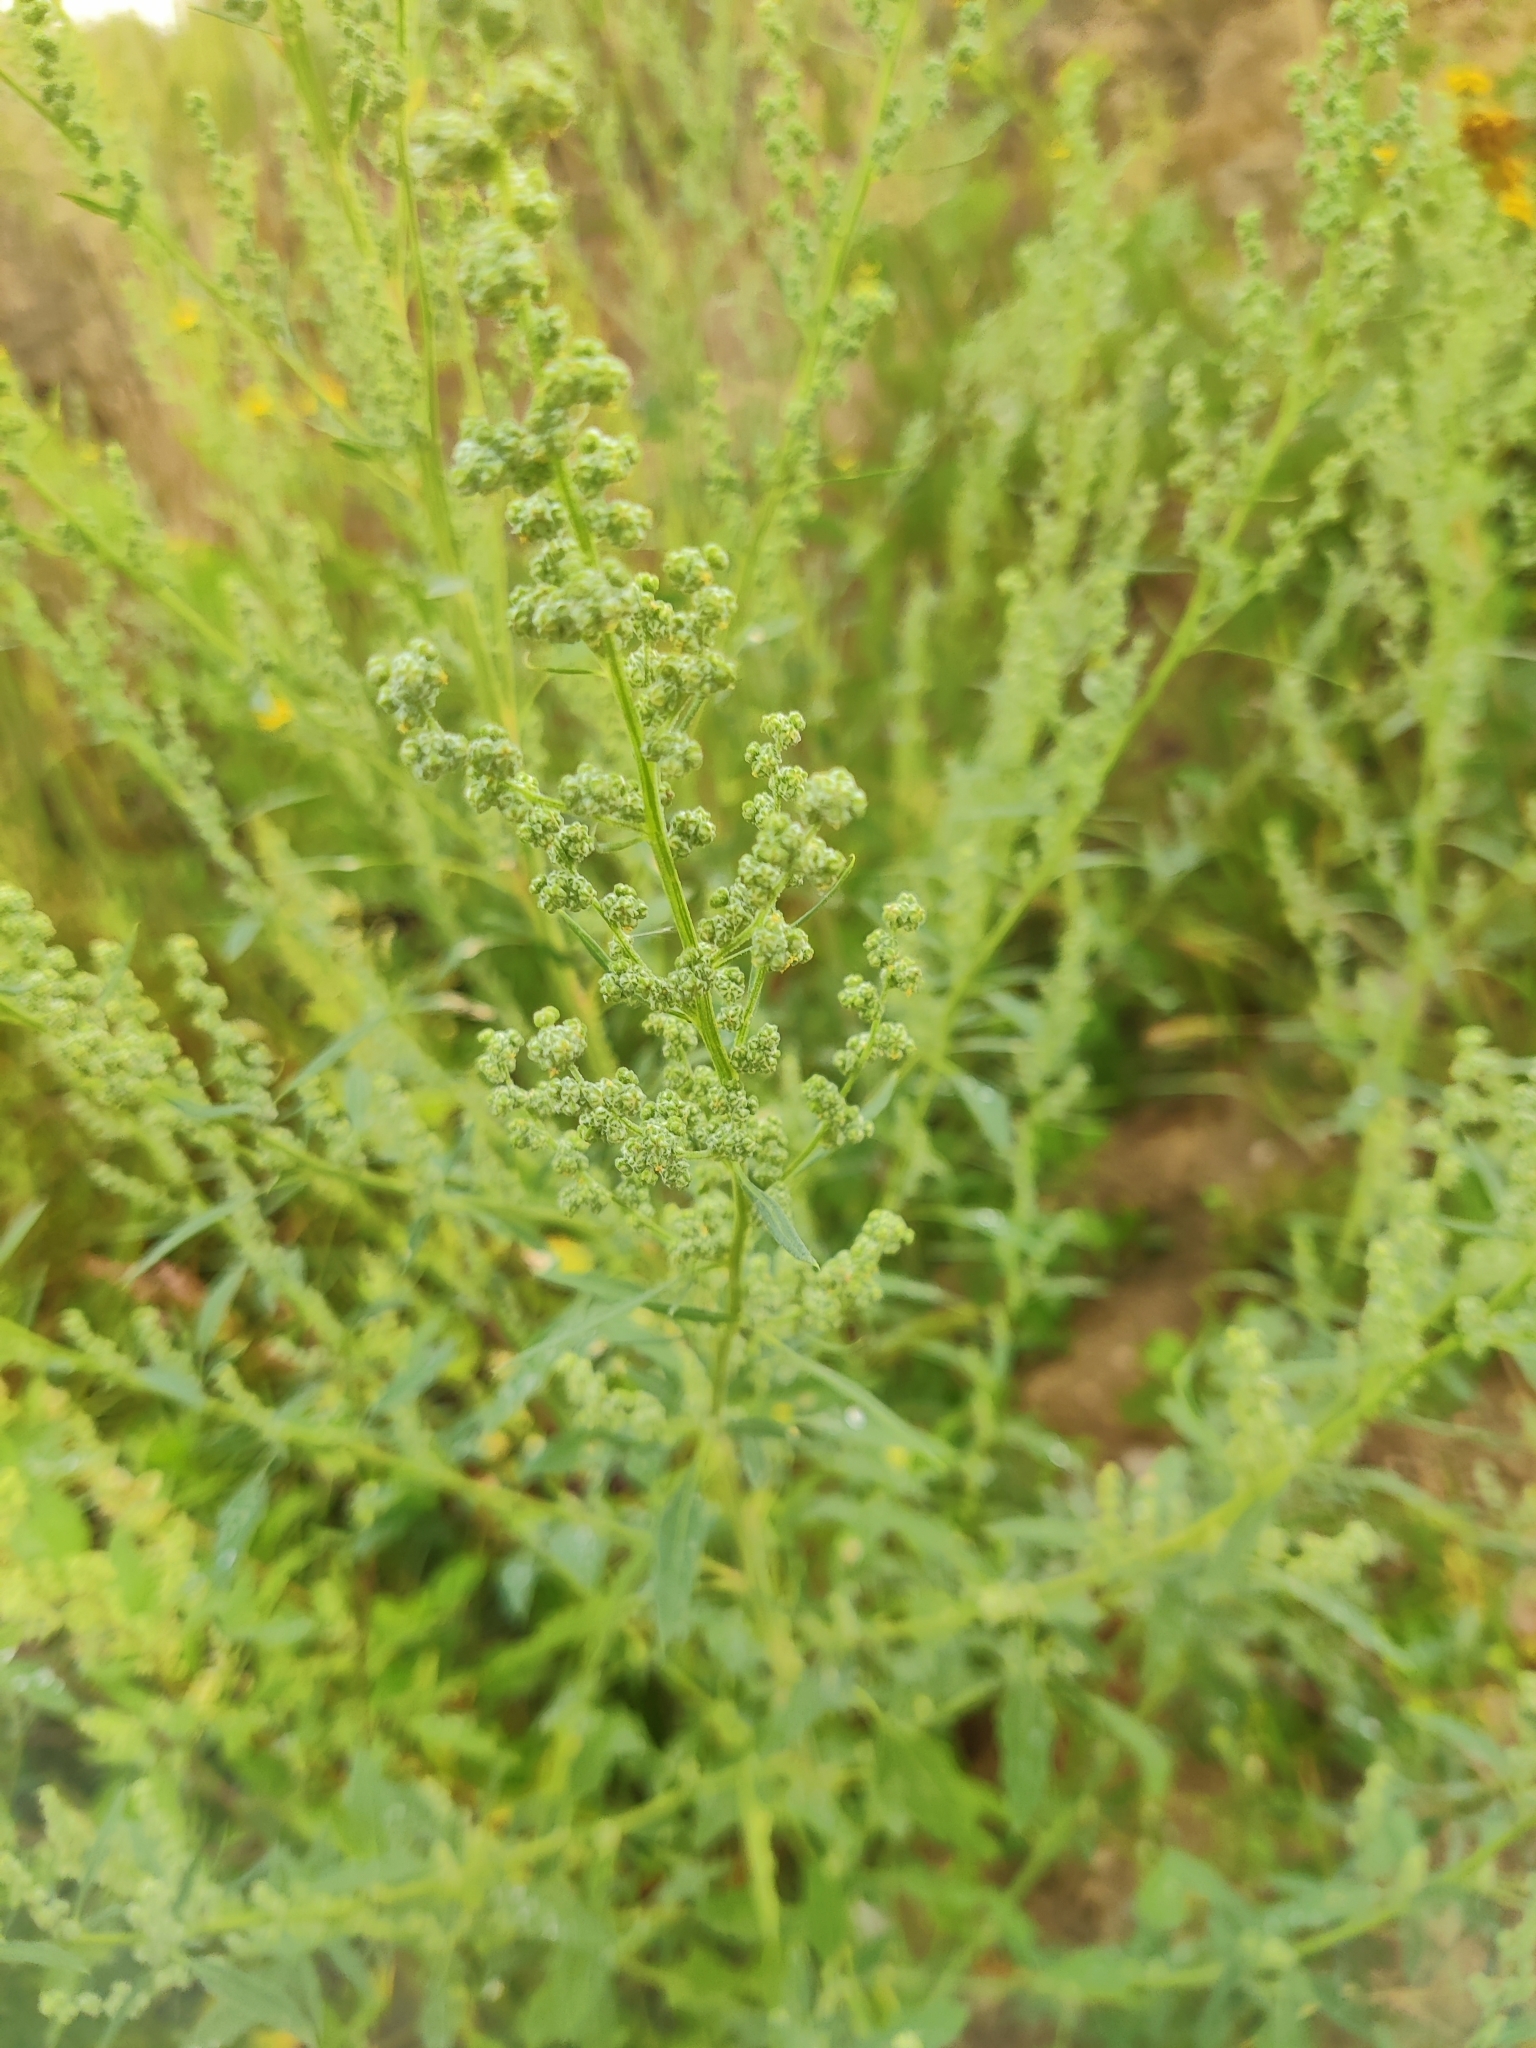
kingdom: Plantae
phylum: Tracheophyta
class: Magnoliopsida
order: Caryophyllales
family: Amaranthaceae
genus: Chenopodium
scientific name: Chenopodium album
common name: Fat-hen
